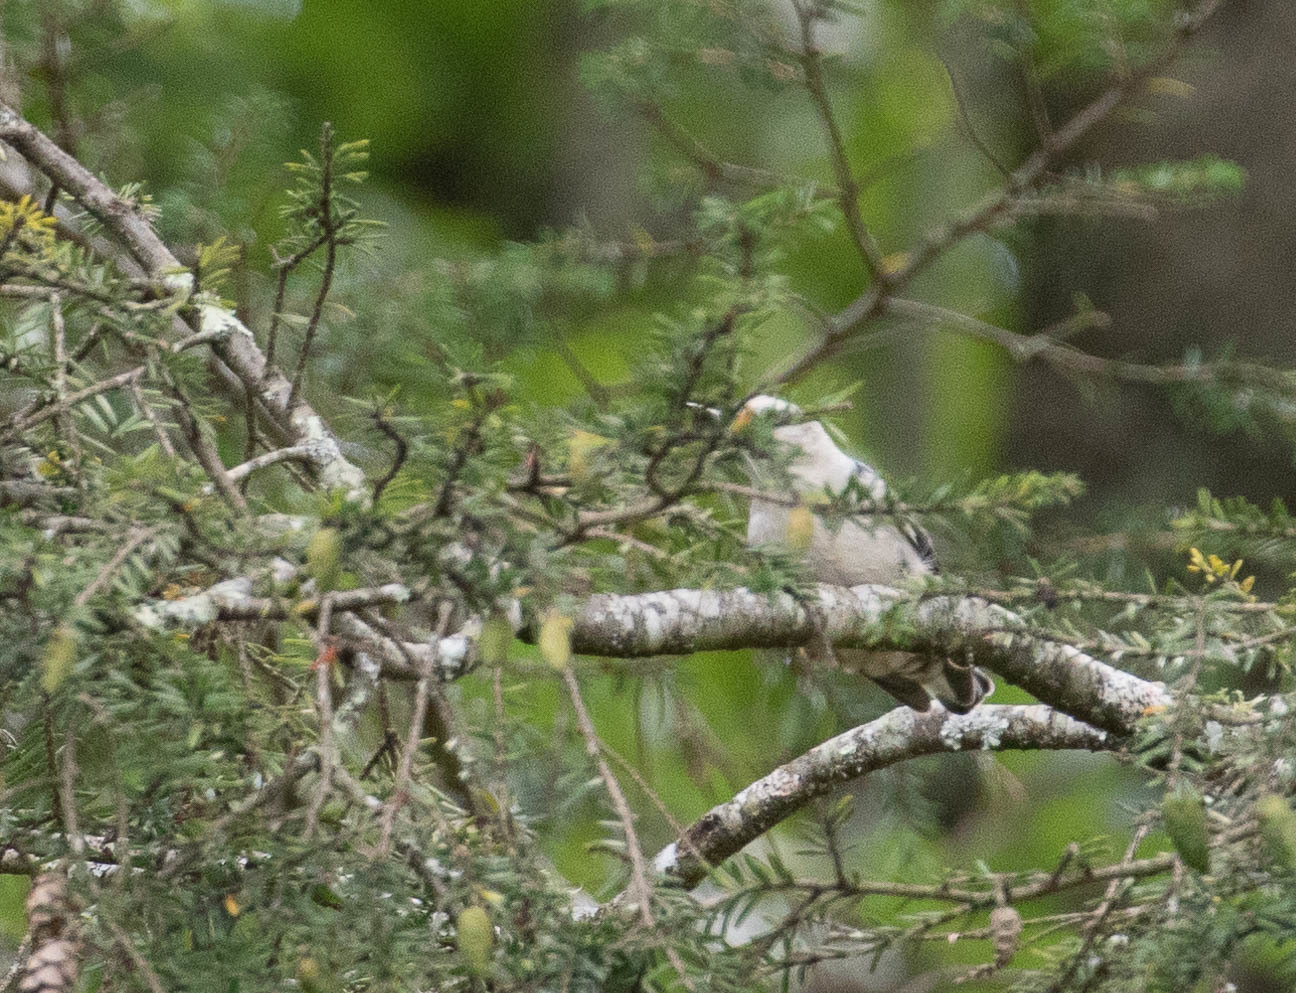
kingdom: Animalia
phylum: Chordata
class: Aves
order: Passeriformes
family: Sittidae
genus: Sitta
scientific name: Sitta carolinensis
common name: White-breasted nuthatch
